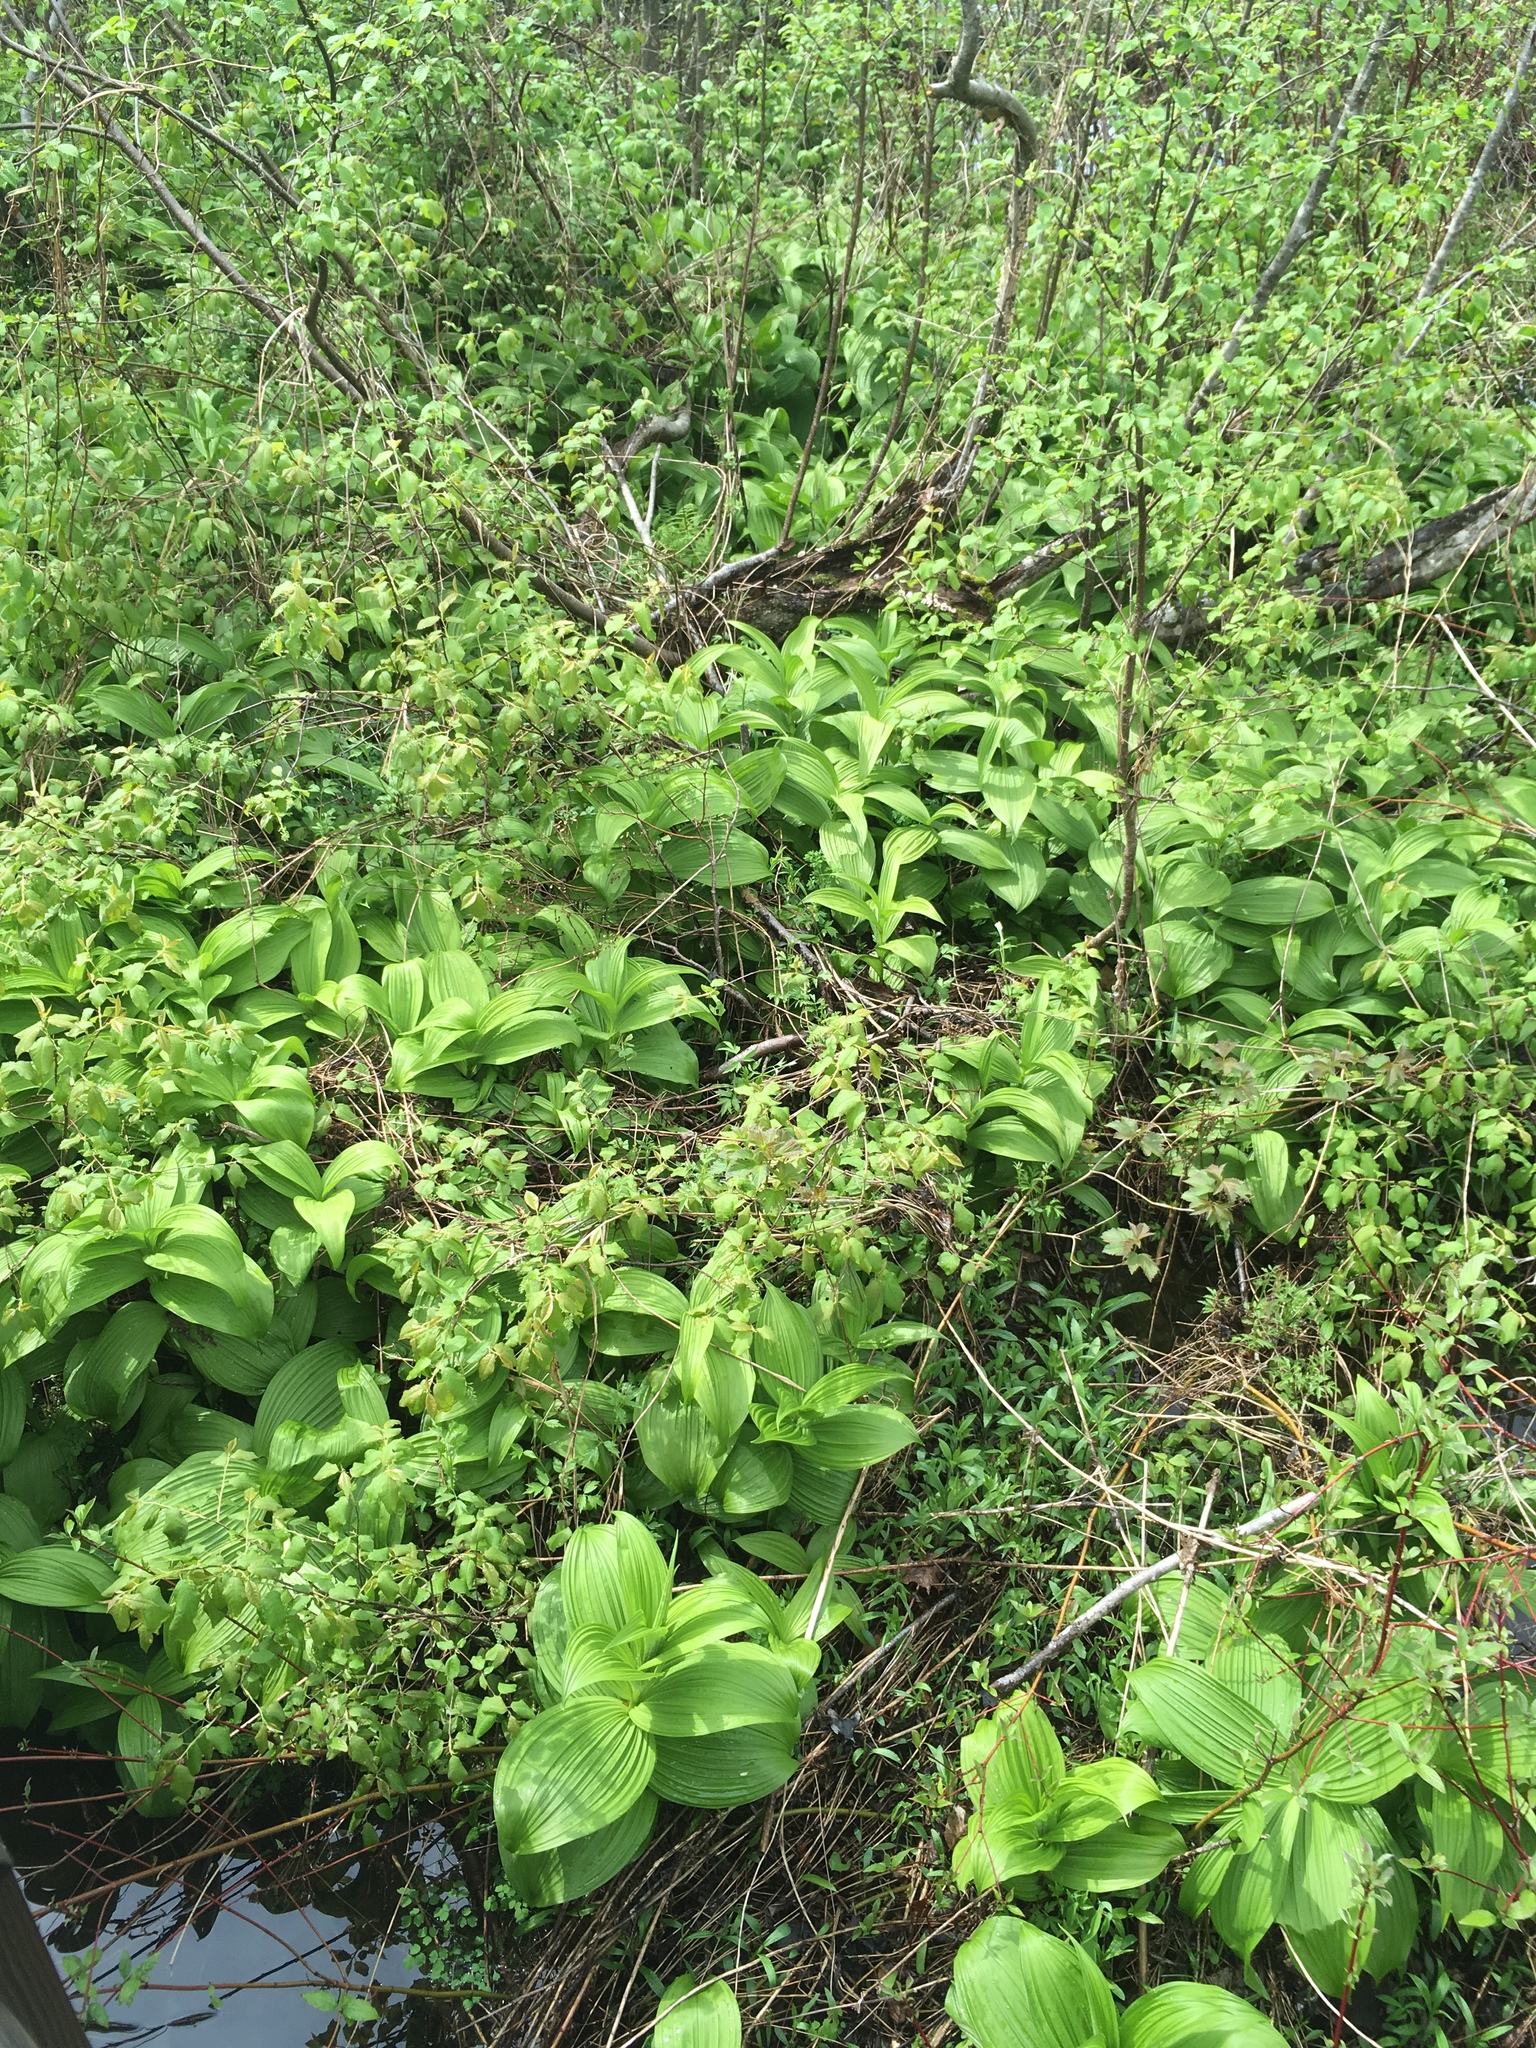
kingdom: Plantae
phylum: Tracheophyta
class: Liliopsida
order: Liliales
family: Melanthiaceae
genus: Veratrum
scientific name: Veratrum viride
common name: American false hellebore
